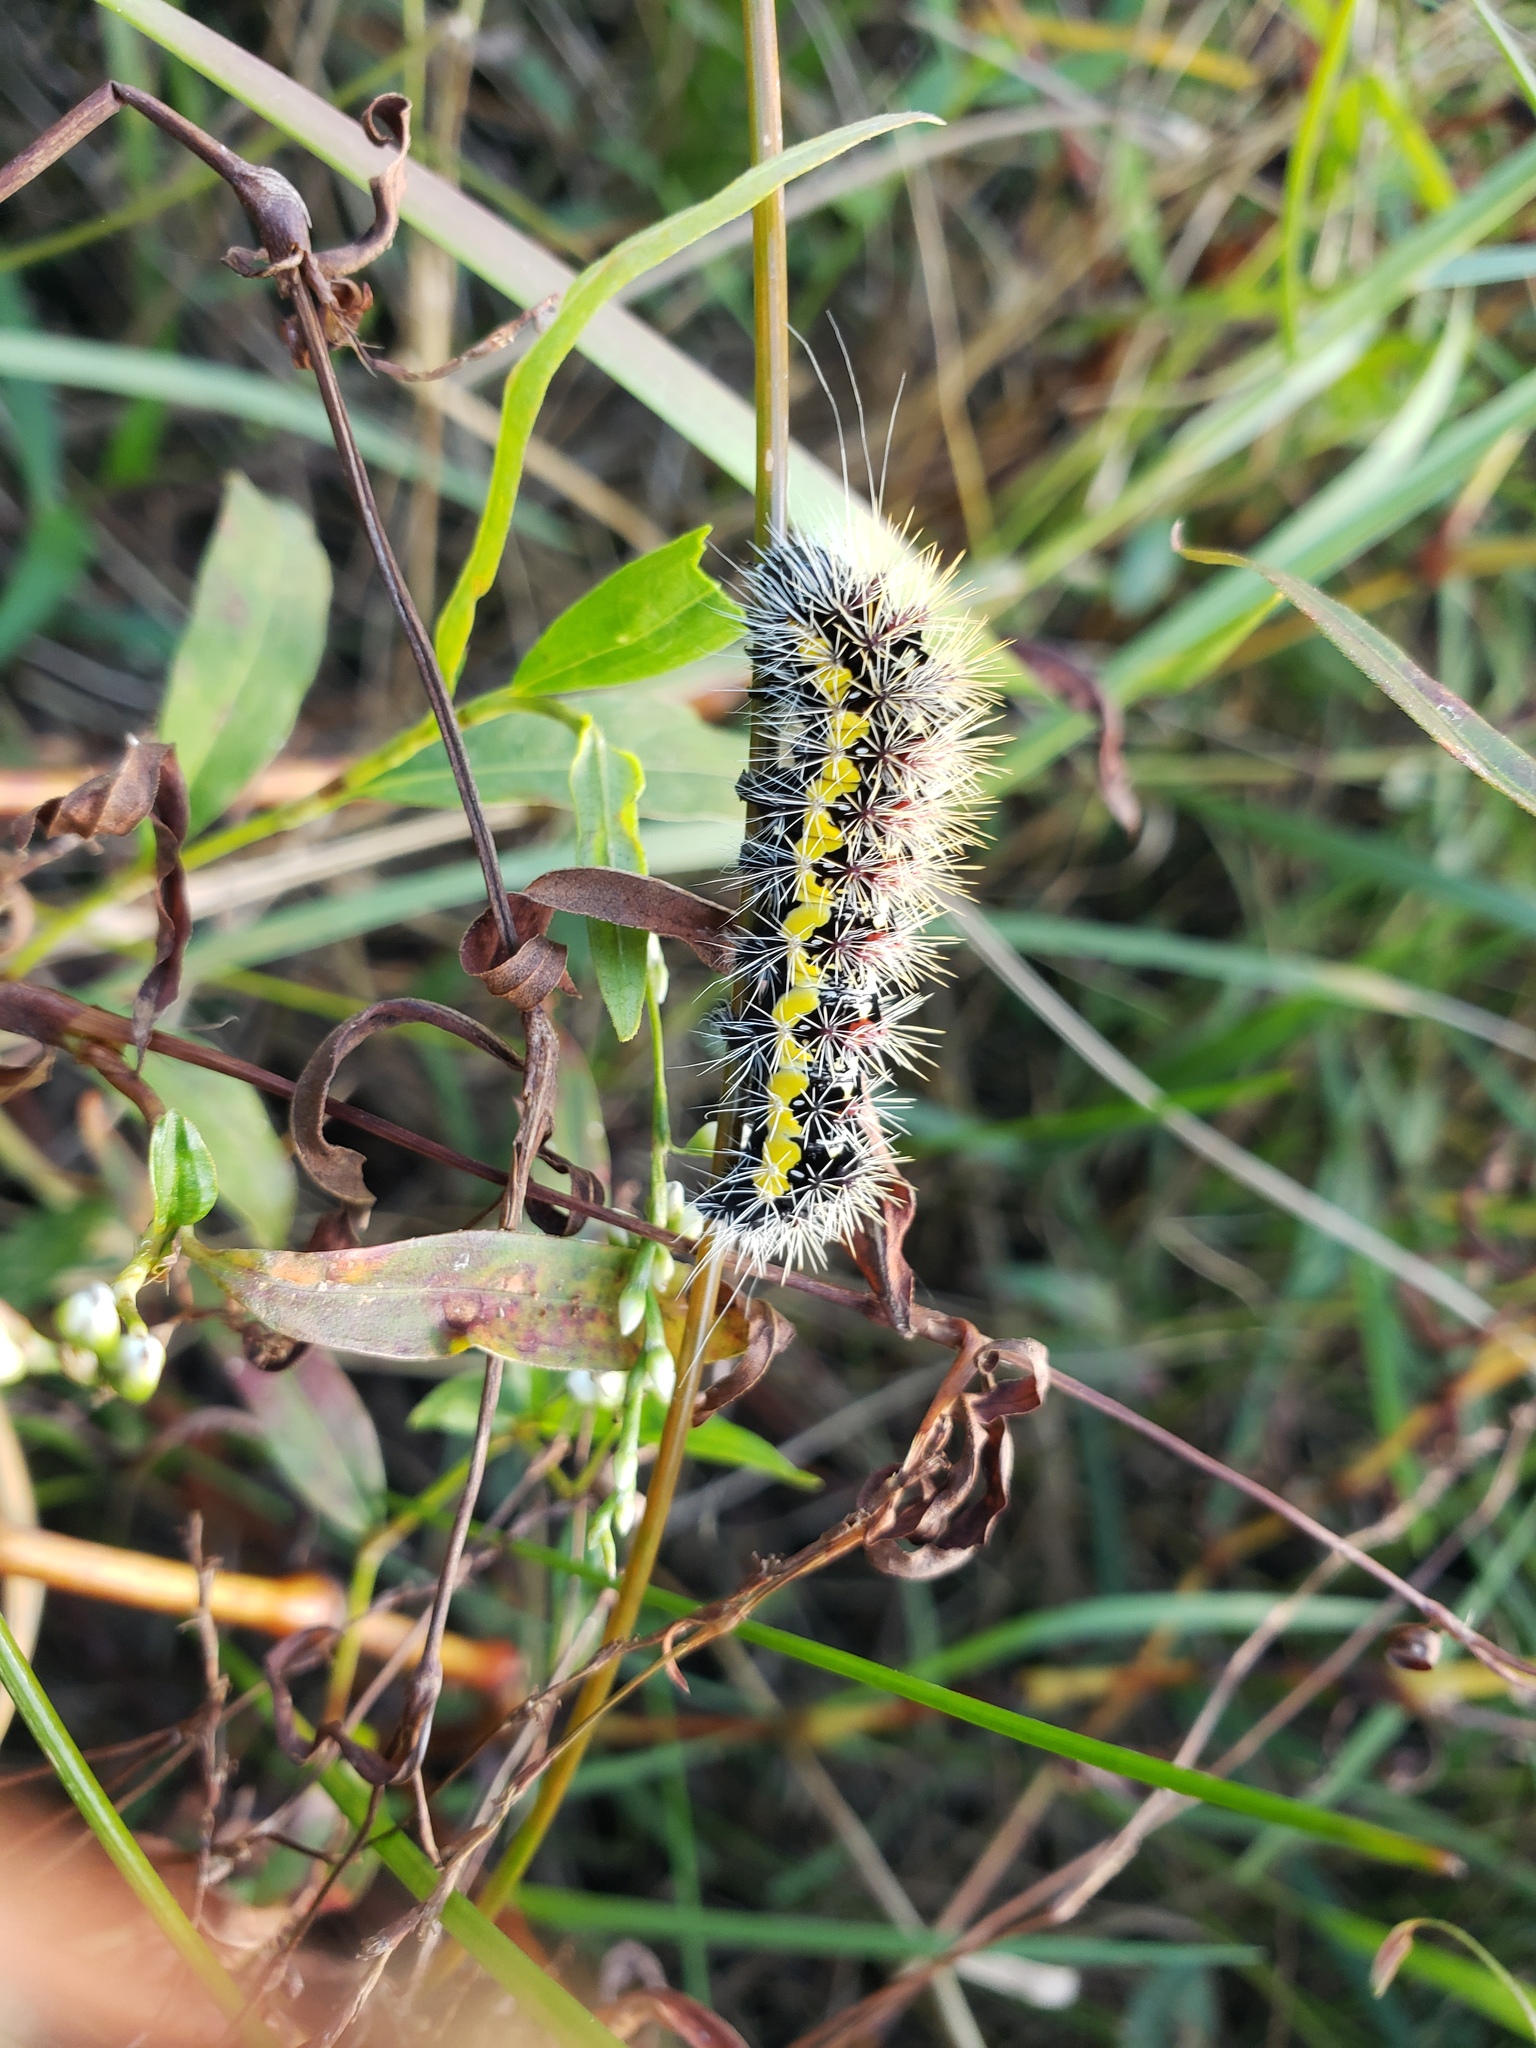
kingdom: Animalia
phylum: Arthropoda
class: Insecta
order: Lepidoptera
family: Noctuidae
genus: Acronicta
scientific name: Acronicta oblinita
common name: Smeared dagger
